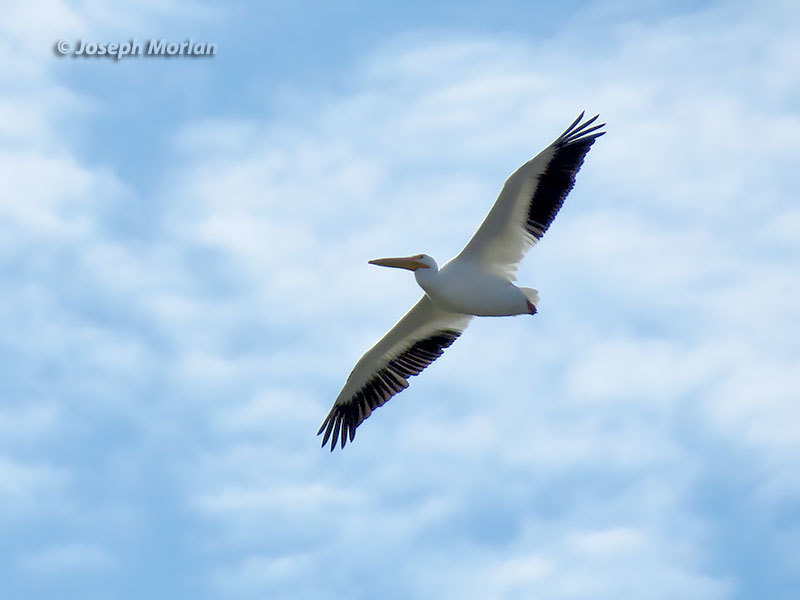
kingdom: Animalia
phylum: Chordata
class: Aves
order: Pelecaniformes
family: Pelecanidae
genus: Pelecanus
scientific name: Pelecanus erythrorhynchos
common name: American white pelican
